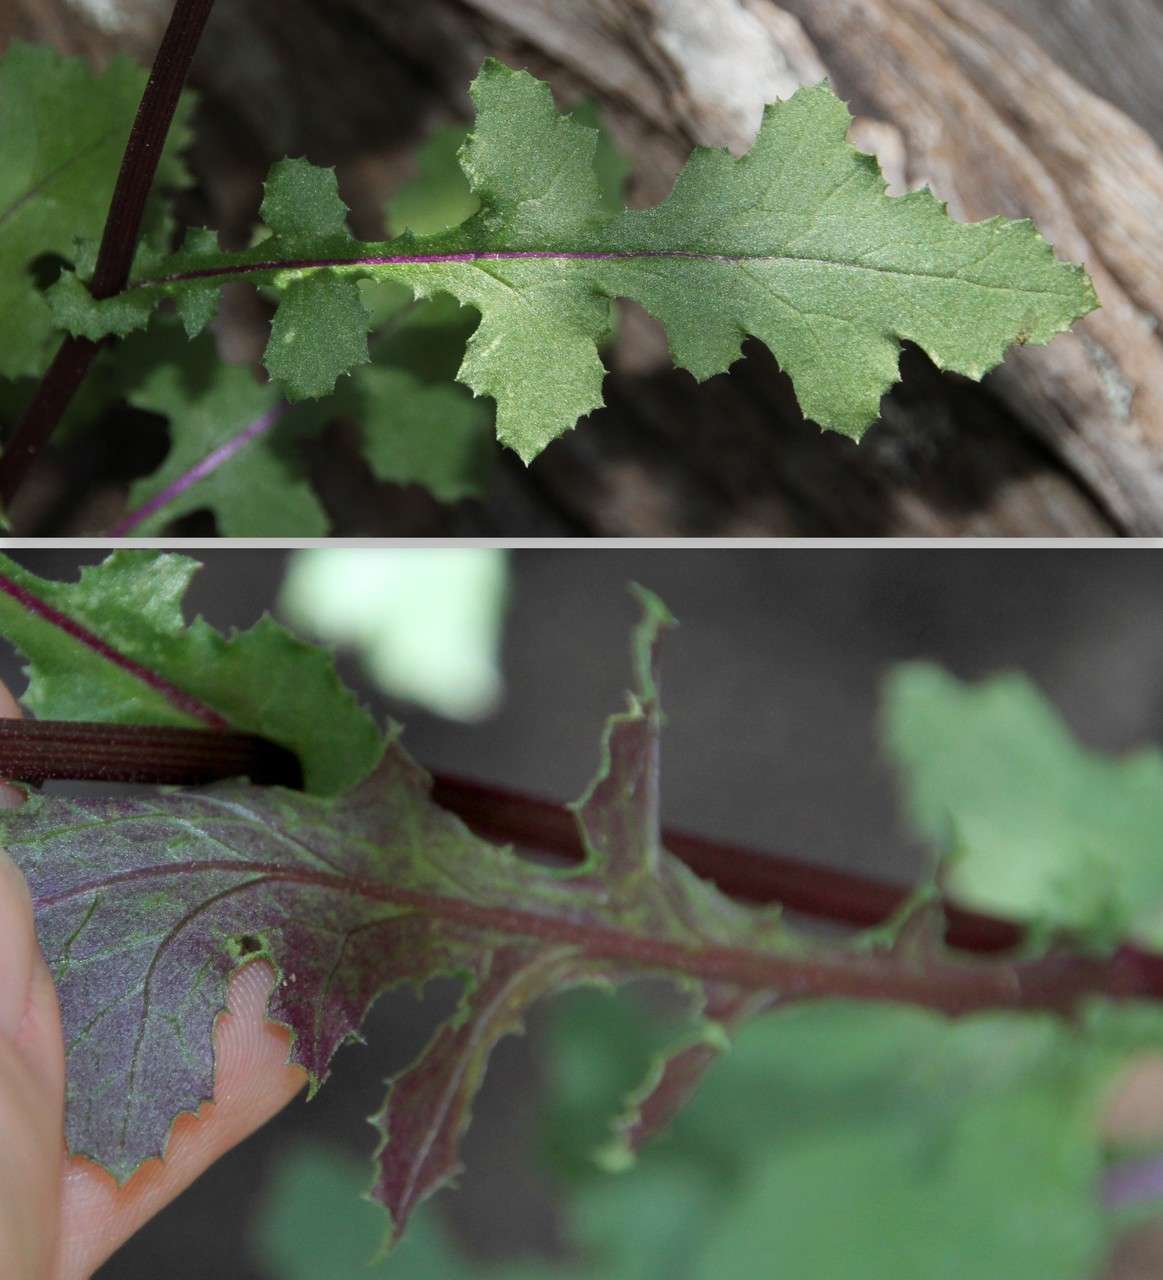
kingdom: Plantae
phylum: Tracheophyta
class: Magnoliopsida
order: Asterales
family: Asteraceae
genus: Senecio
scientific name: Senecio picridioides
